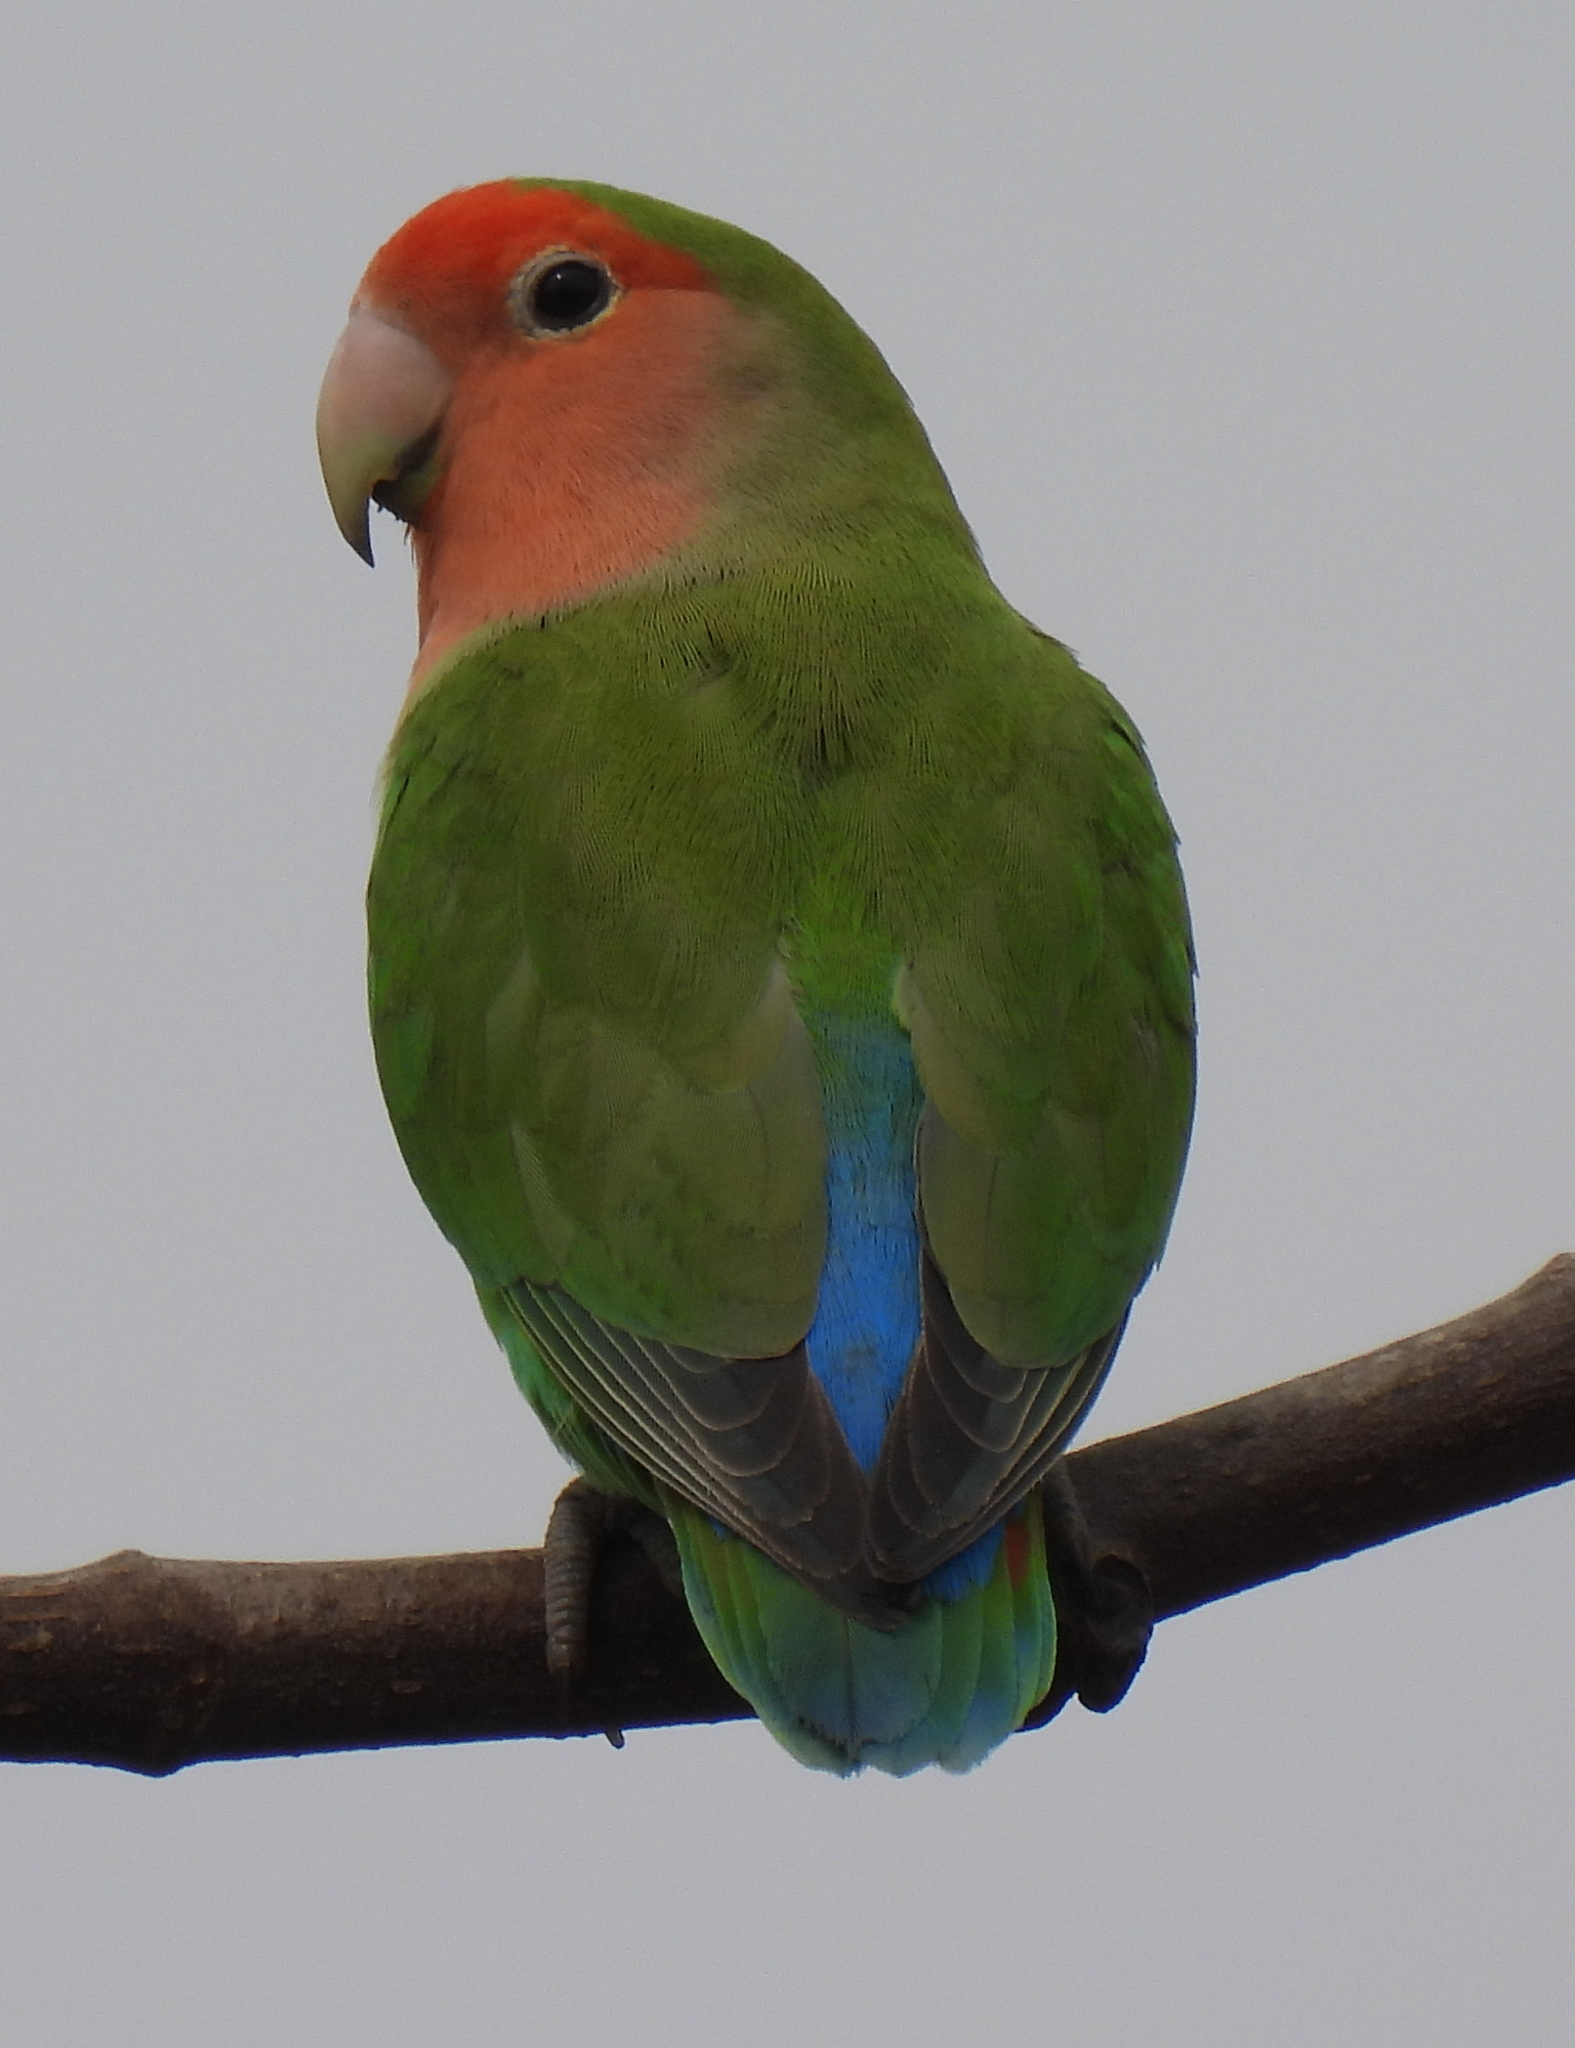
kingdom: Animalia
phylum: Chordata
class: Aves
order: Psittaciformes
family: Psittacidae
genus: Agapornis
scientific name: Agapornis roseicollis
